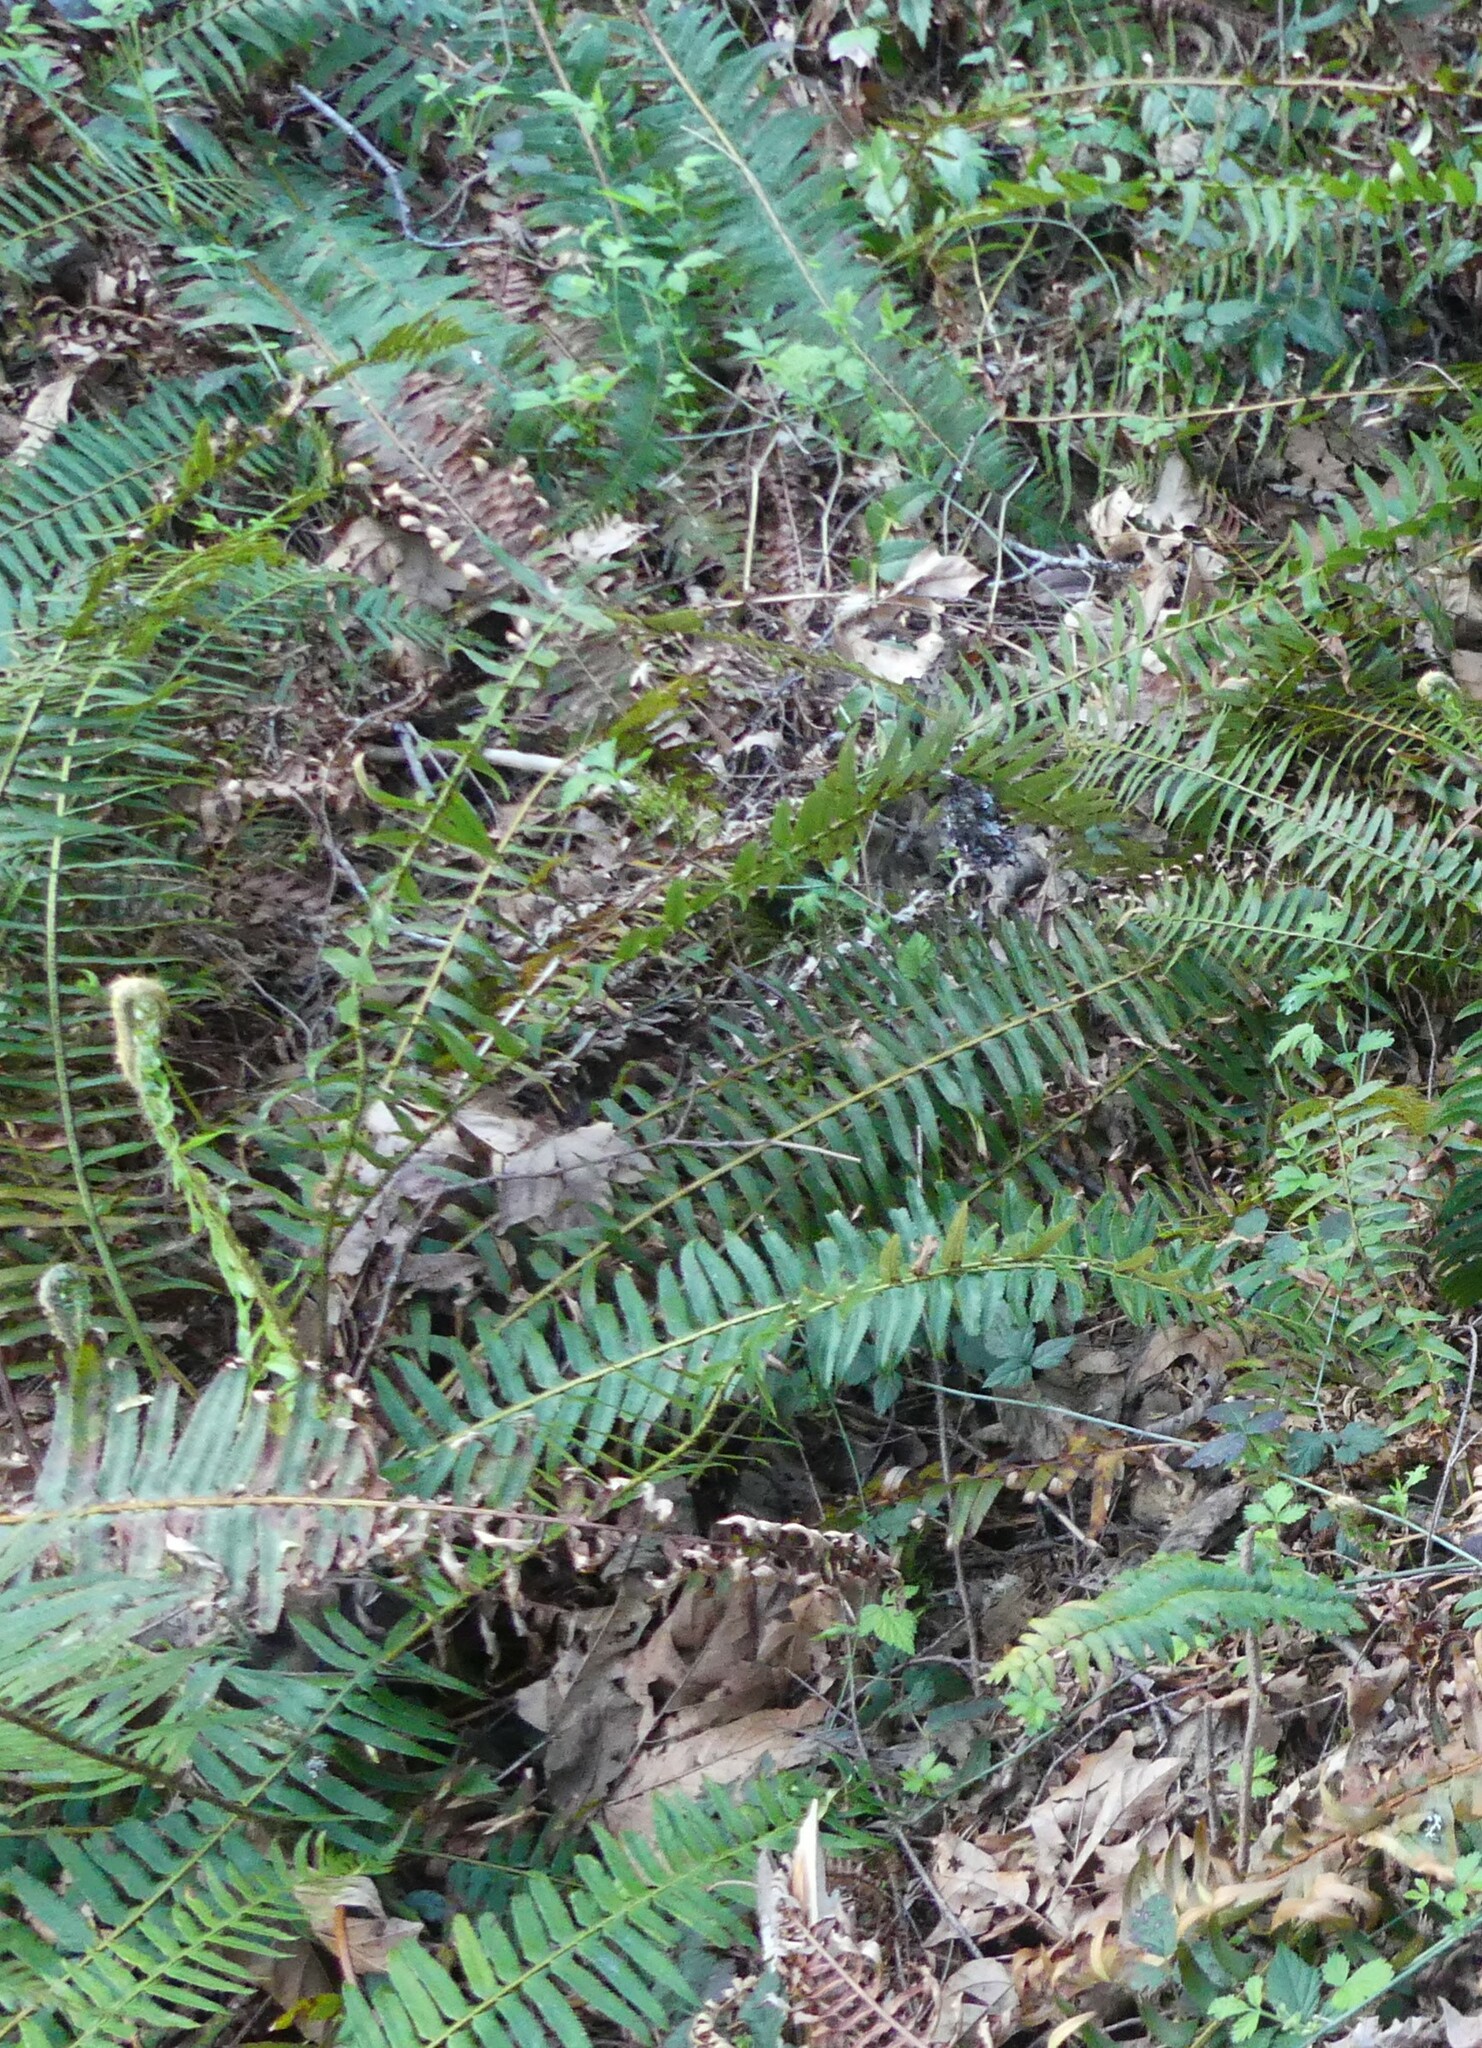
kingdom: Plantae
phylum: Tracheophyta
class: Polypodiopsida
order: Polypodiales
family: Dryopteridaceae
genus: Polystichum
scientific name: Polystichum munitum
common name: Western sword-fern
